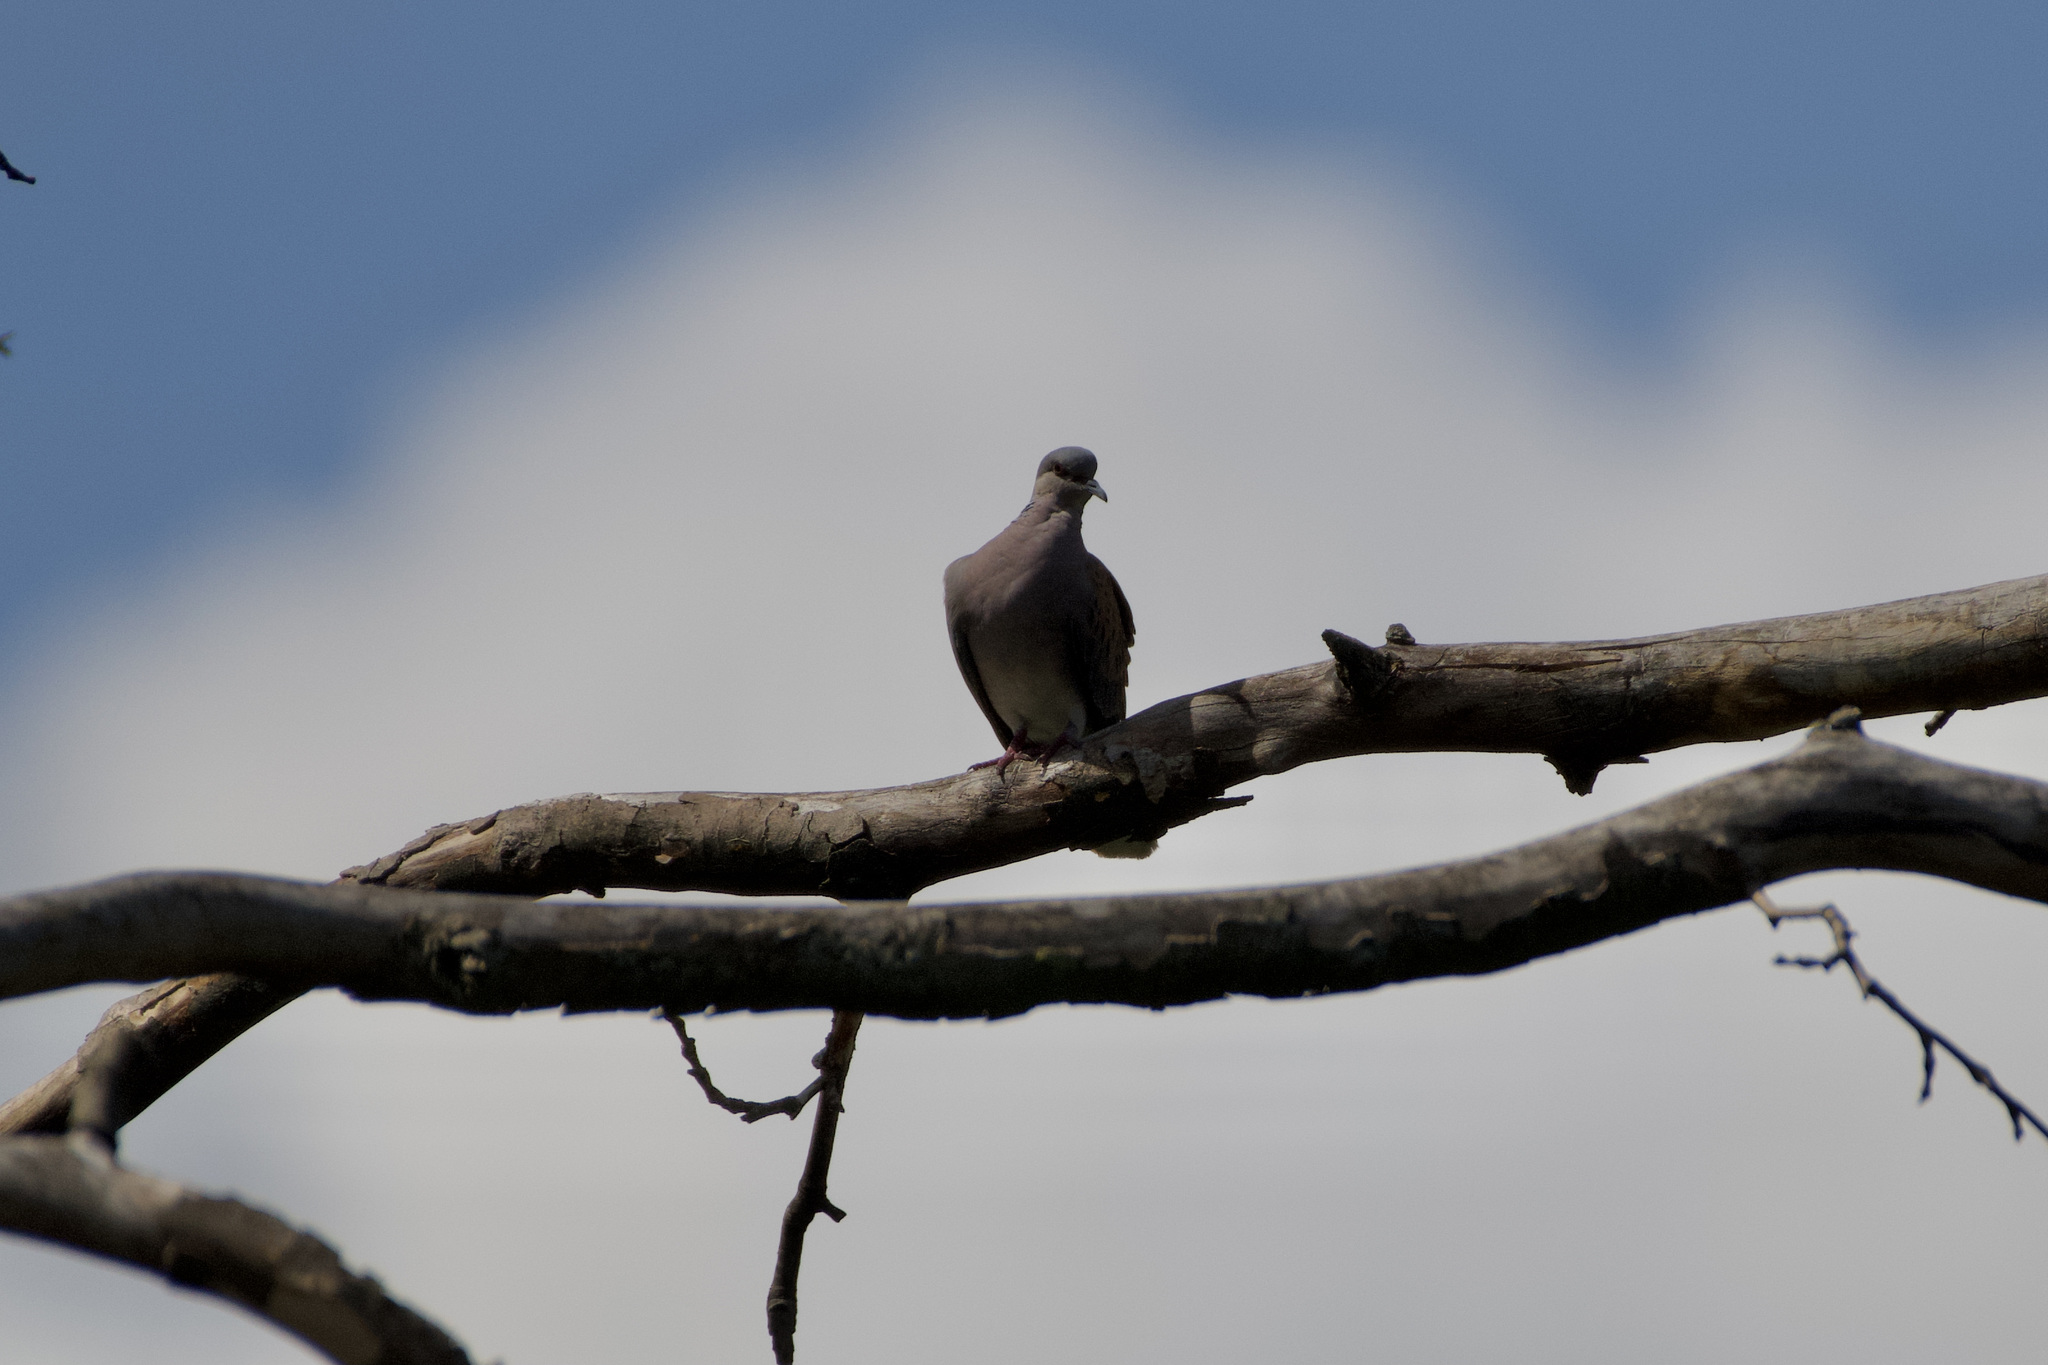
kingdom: Animalia
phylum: Chordata
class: Aves
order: Columbiformes
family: Columbidae
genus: Streptopelia
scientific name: Streptopelia turtur
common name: European turtle dove
